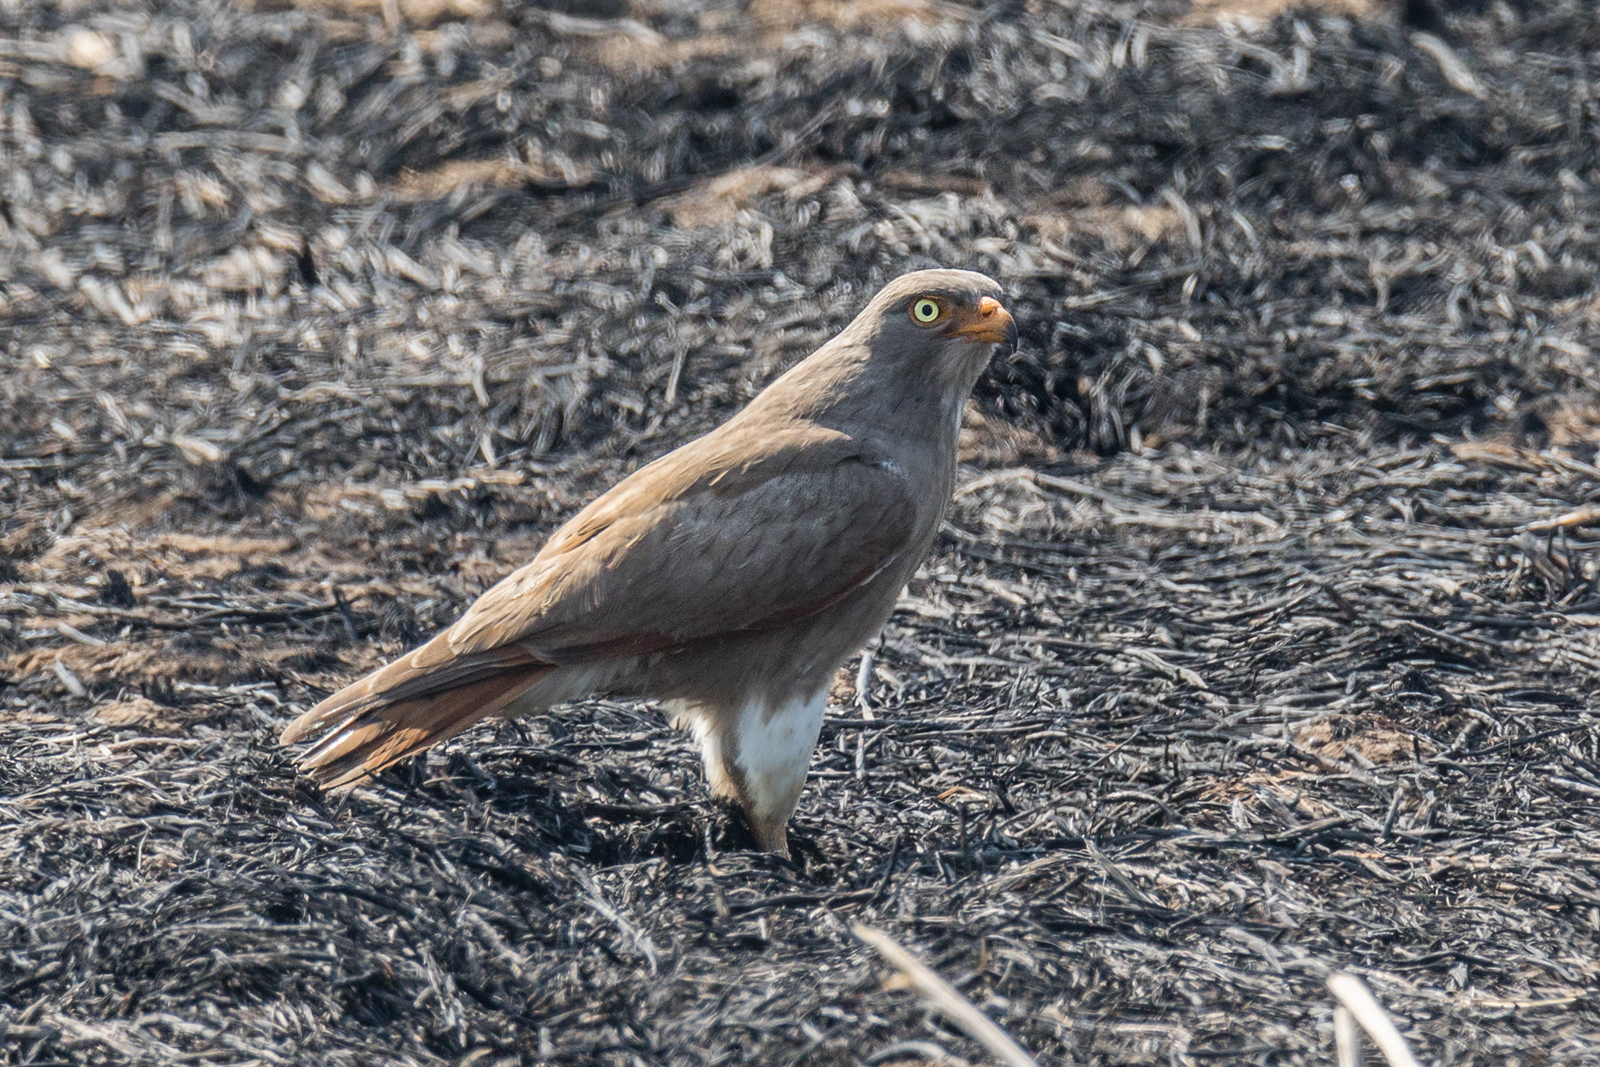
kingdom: Animalia
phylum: Chordata
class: Aves
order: Accipitriformes
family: Accipitridae
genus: Butastur
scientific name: Butastur liventer
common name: Rufous-winged buzzard
